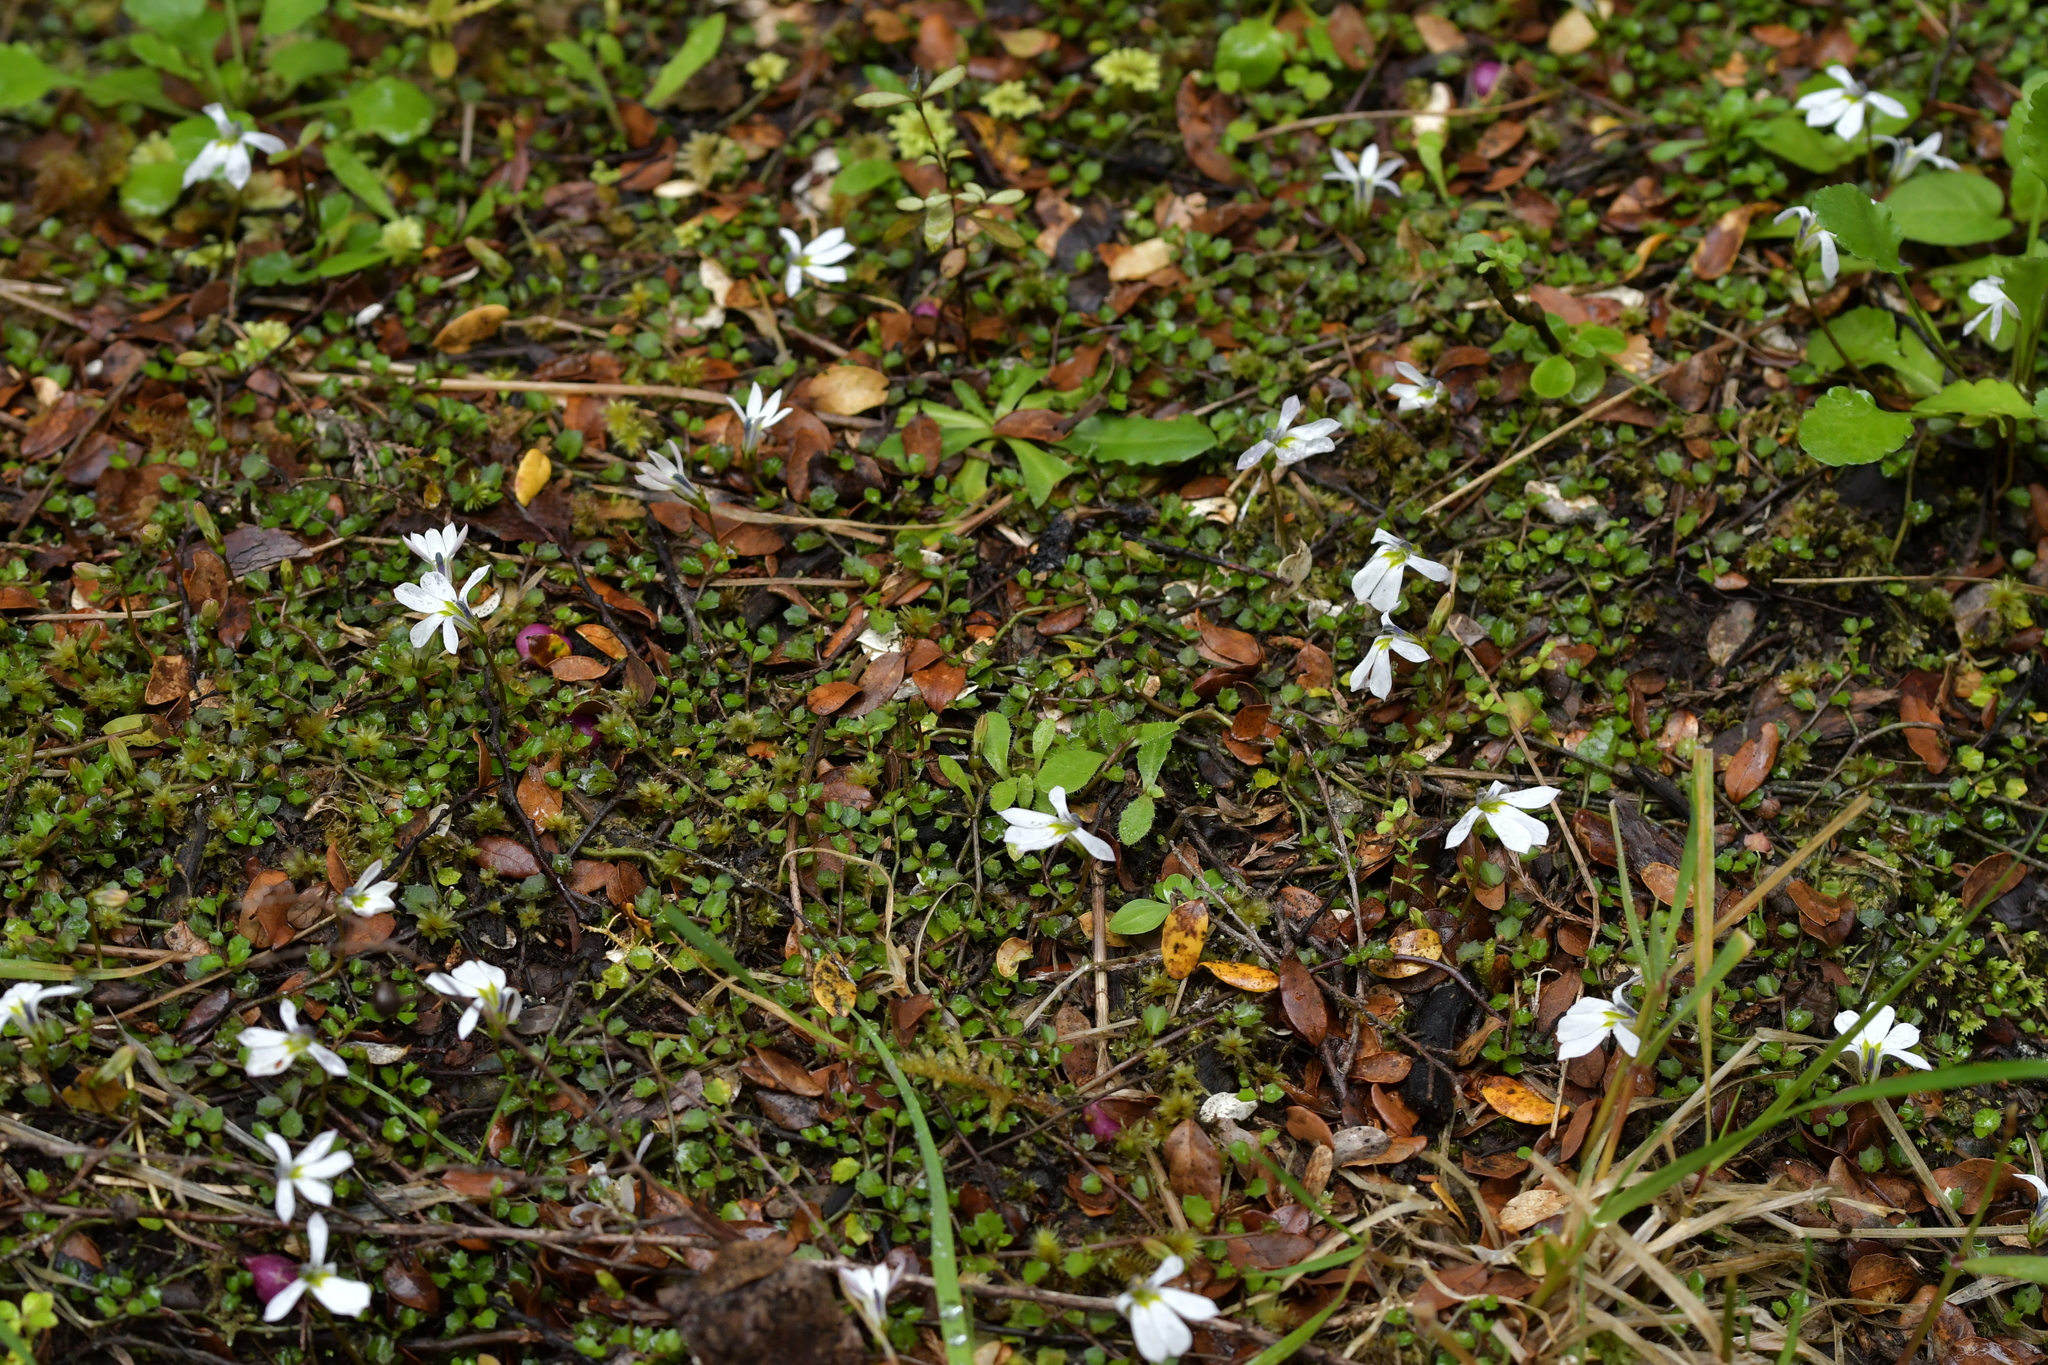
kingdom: Plantae
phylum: Tracheophyta
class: Magnoliopsida
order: Asterales
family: Campanulaceae
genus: Lobelia
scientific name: Lobelia angulata
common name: Lawn lobelia
